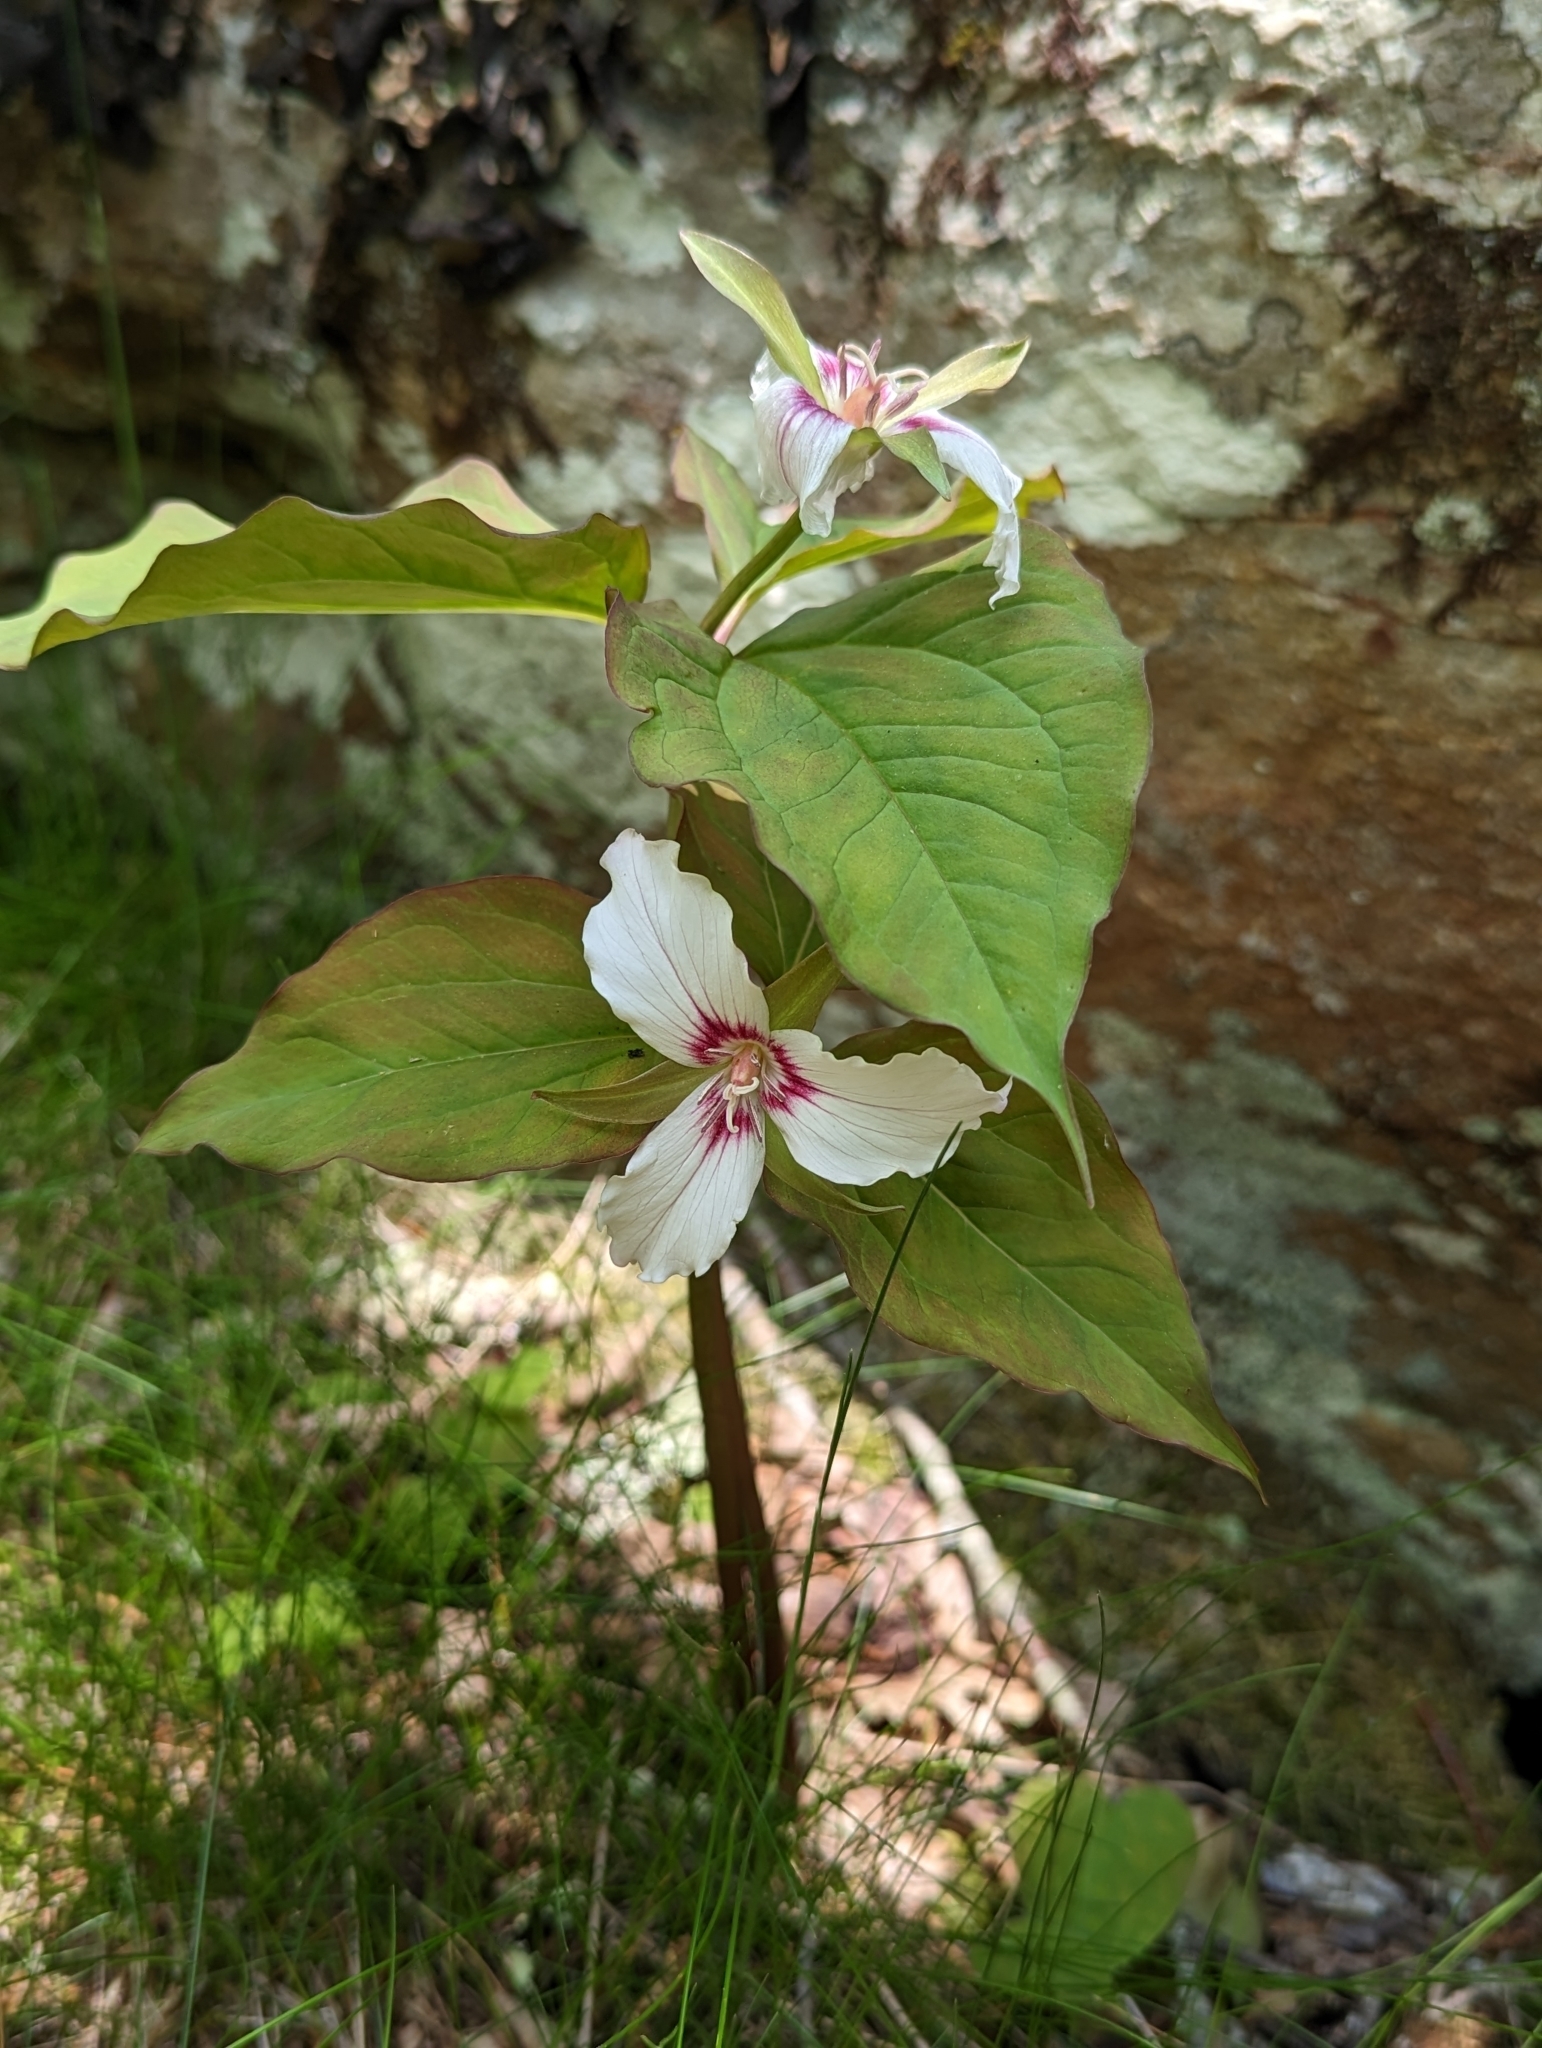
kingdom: Plantae
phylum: Tracheophyta
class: Liliopsida
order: Liliales
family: Melanthiaceae
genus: Trillium
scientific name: Trillium undulatum
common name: Paint trillium
